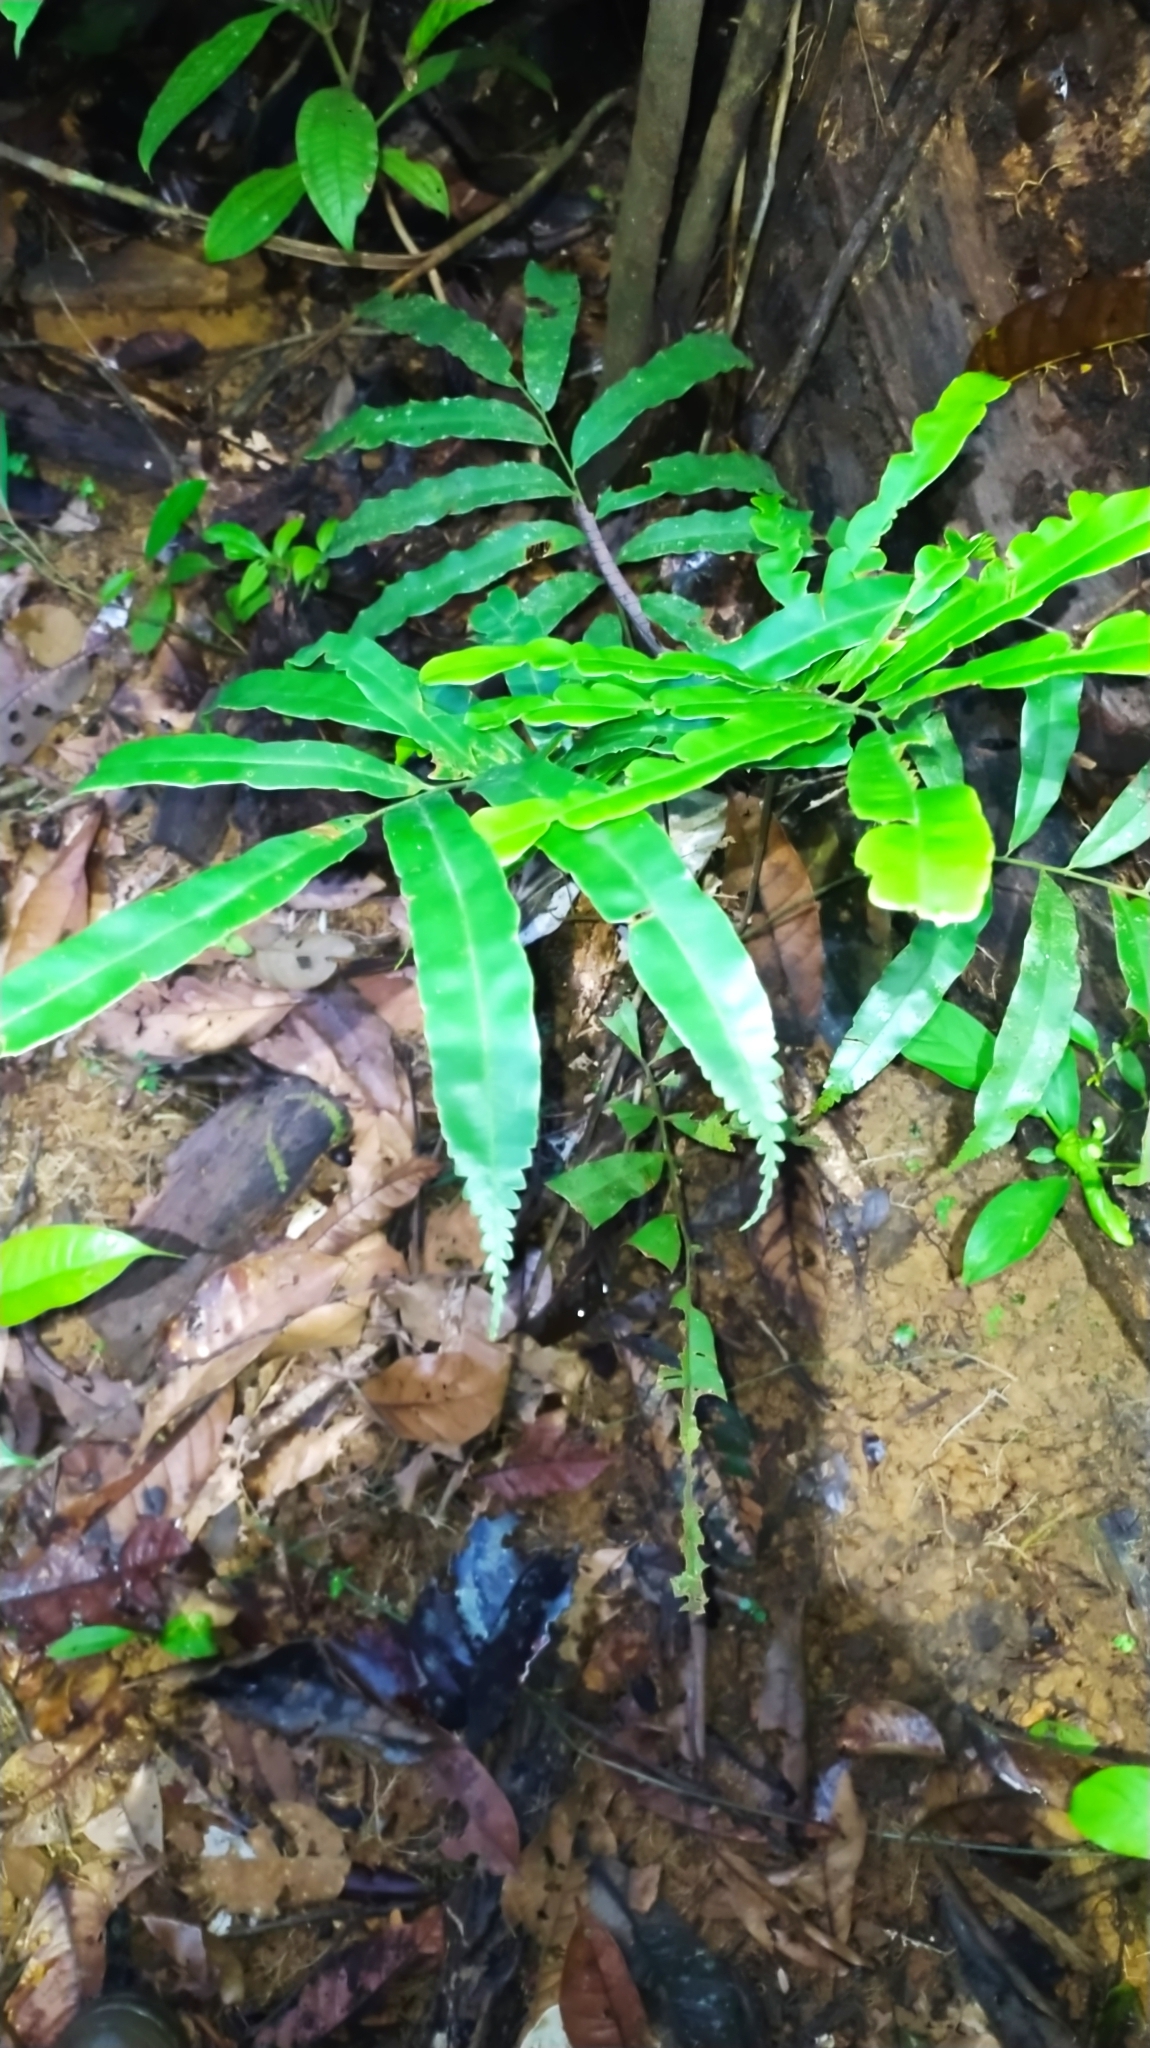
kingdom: Plantae
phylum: Tracheophyta
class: Polypodiopsida
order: Cyatheales
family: Metaxyaceae
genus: Metaxya
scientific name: Metaxya scalaris
